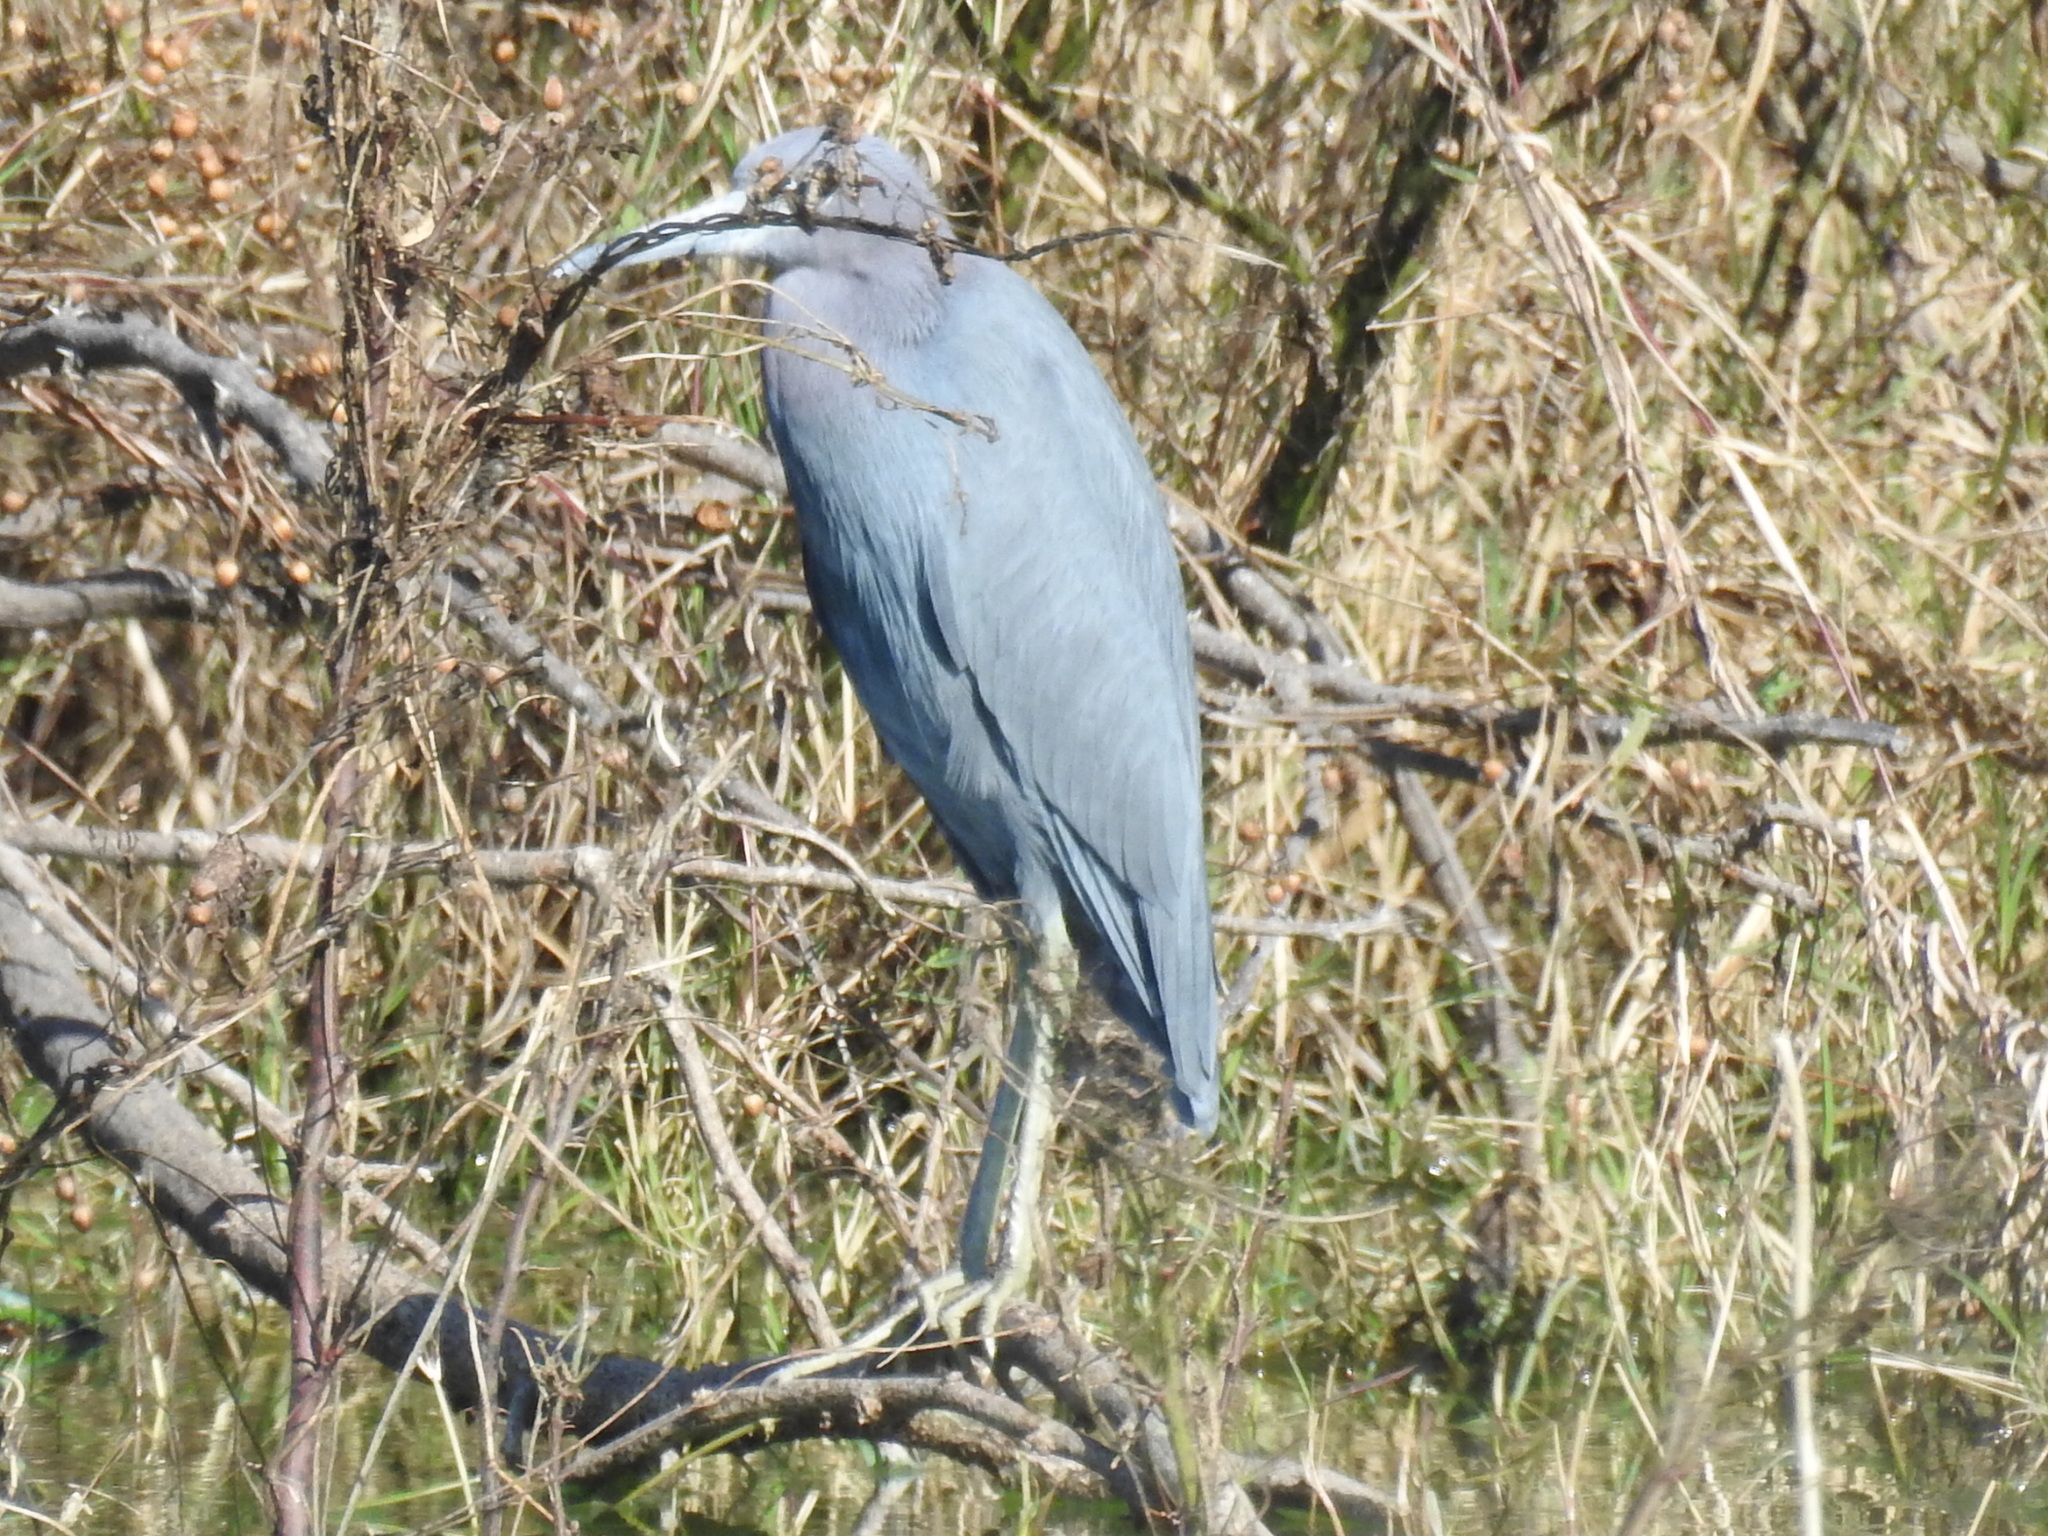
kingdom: Animalia
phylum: Chordata
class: Aves
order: Pelecaniformes
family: Ardeidae
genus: Egretta
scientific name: Egretta caerulea
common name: Little blue heron
